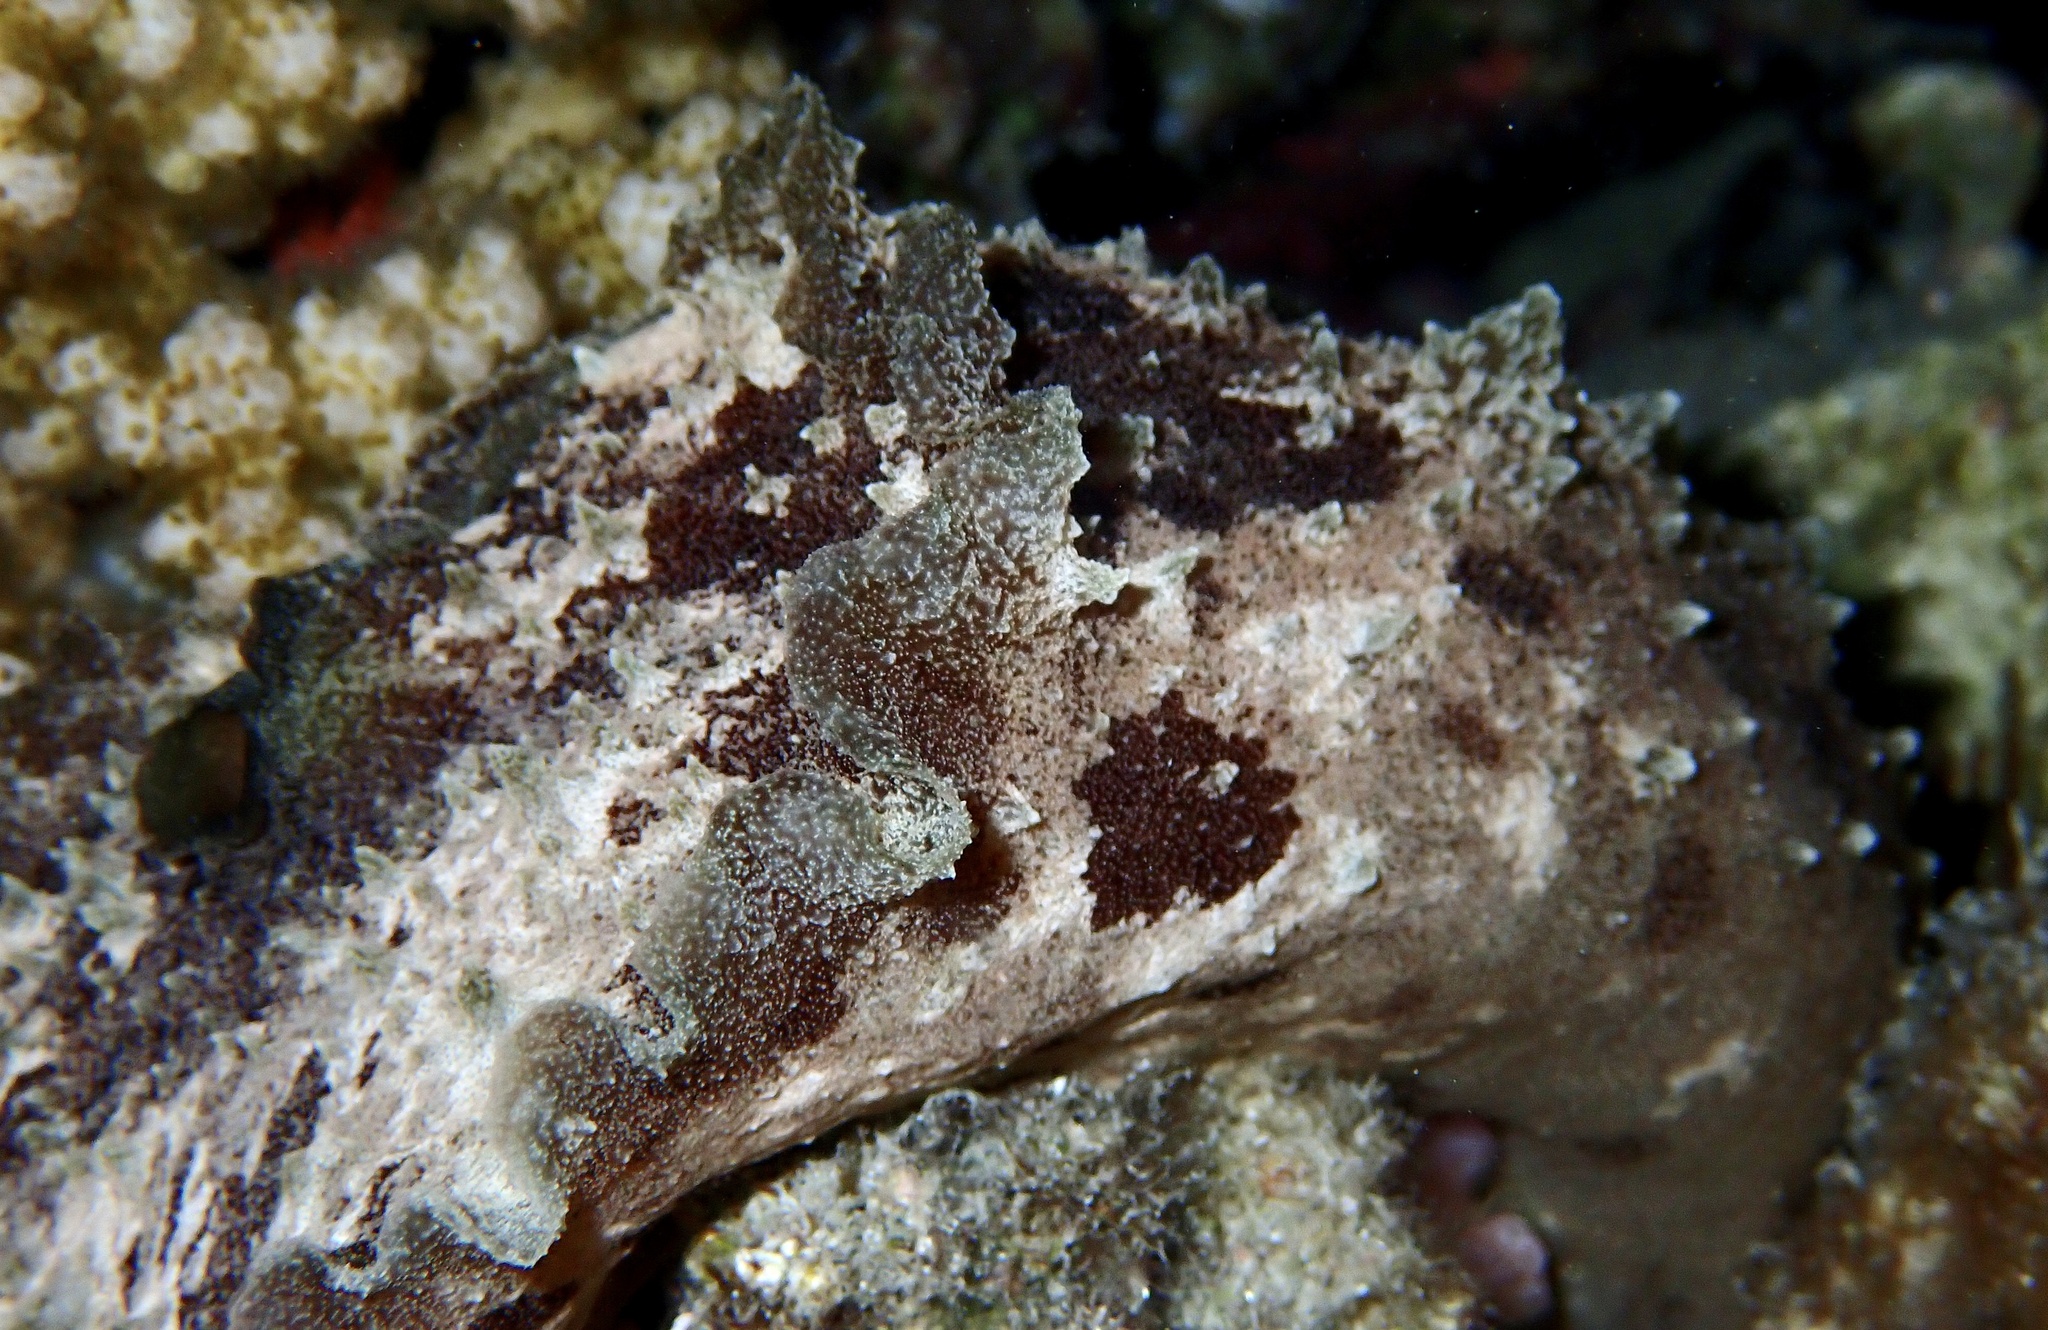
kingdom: Animalia
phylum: Mollusca
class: Gastropoda
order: Aplysiida
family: Aplysiidae
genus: Dolabella
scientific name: Dolabella auricularia
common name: Blunt-end seahare
